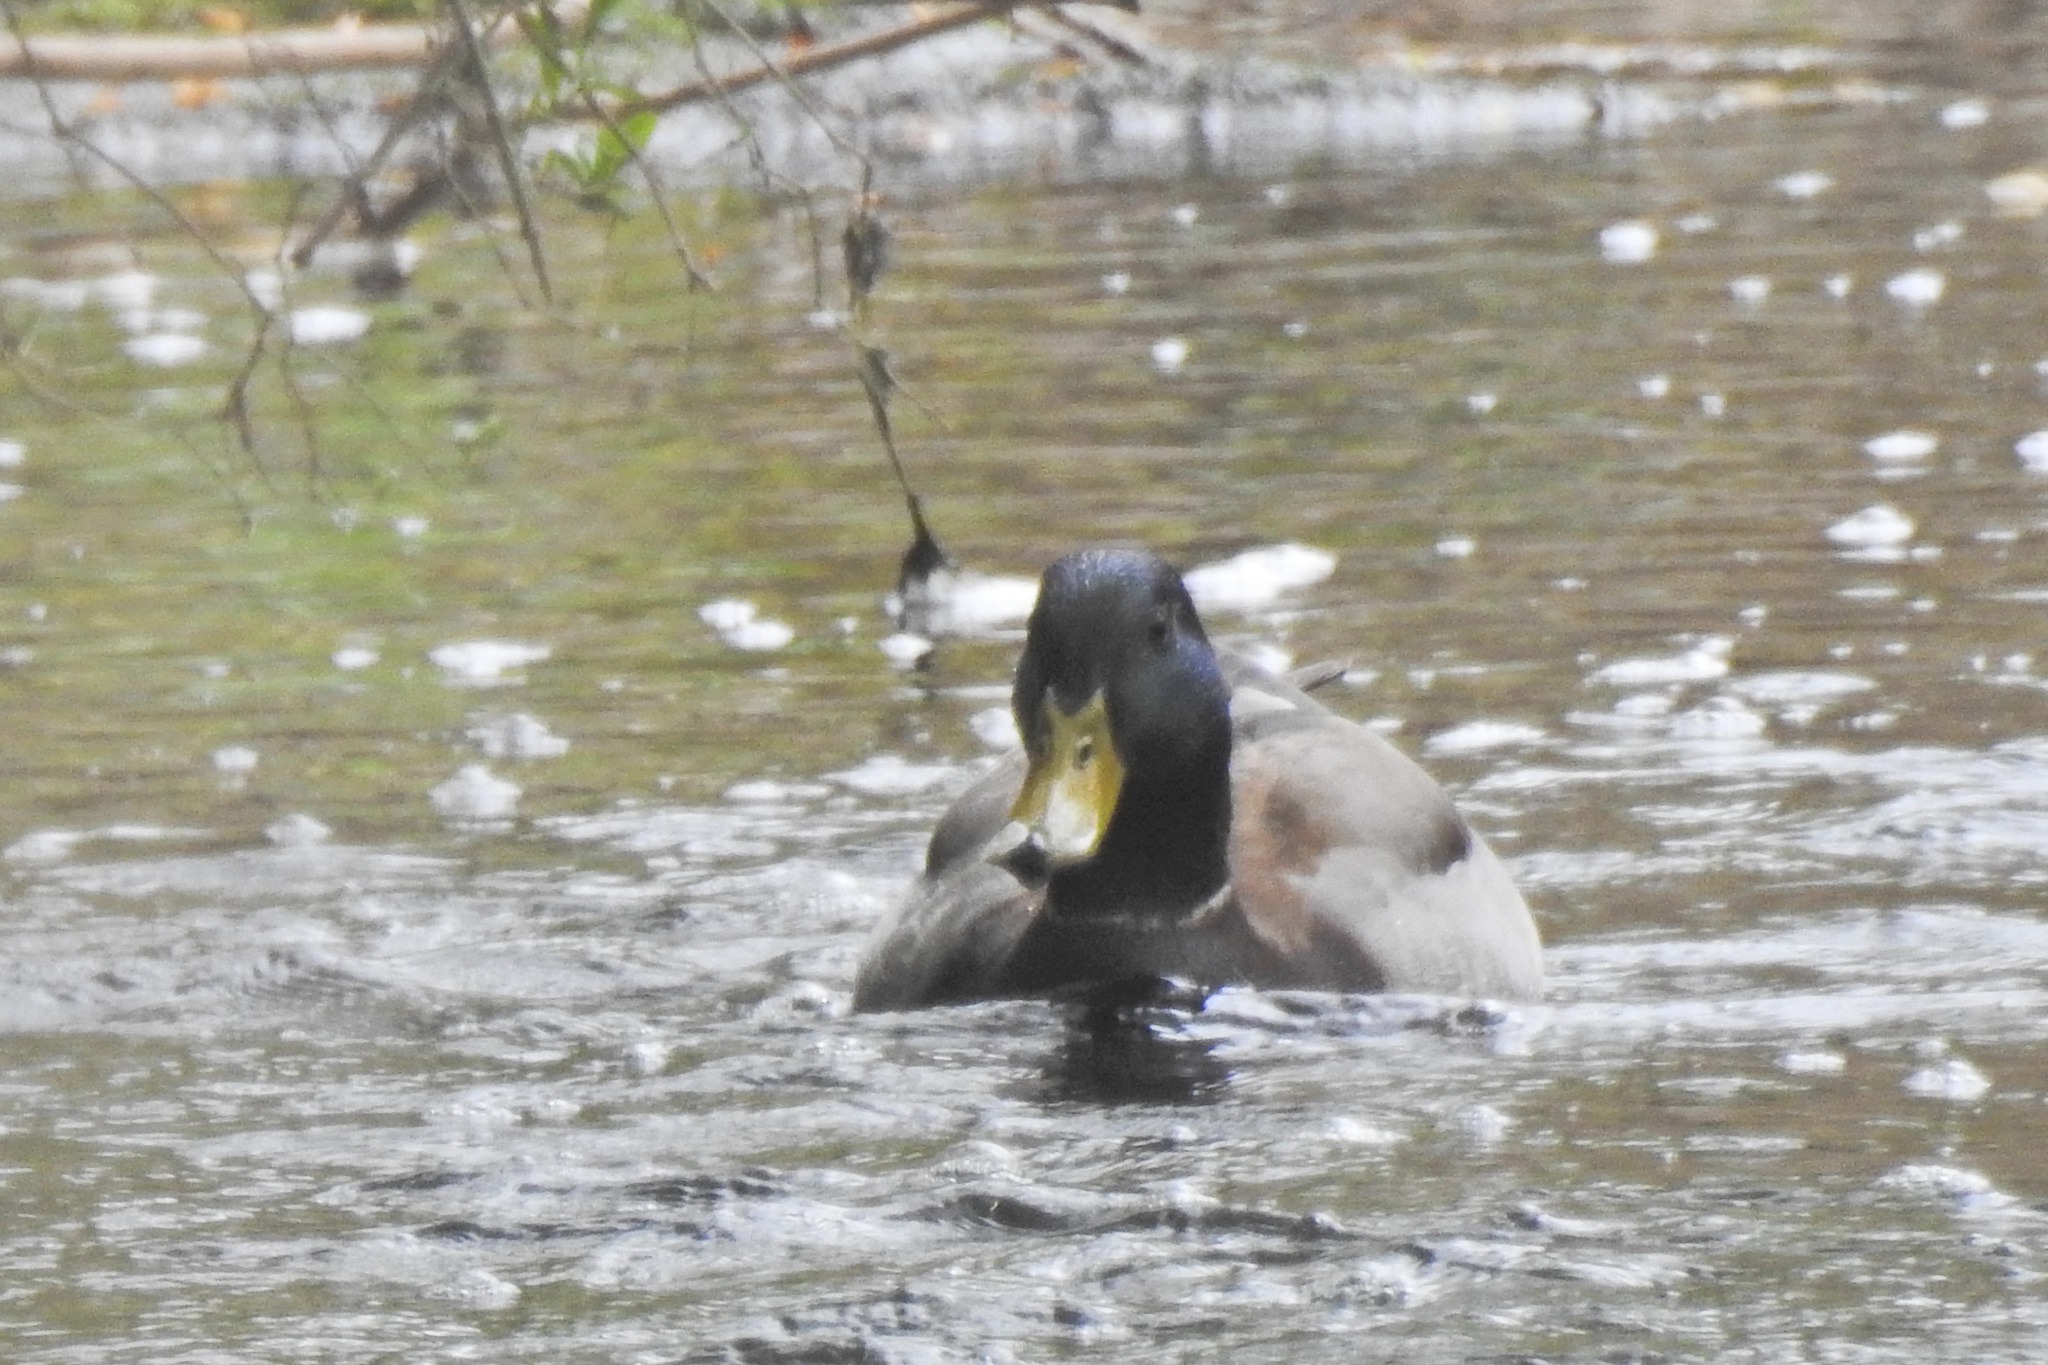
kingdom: Animalia
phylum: Chordata
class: Aves
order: Anseriformes
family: Anatidae
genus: Anas
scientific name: Anas platyrhynchos
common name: Mallard
